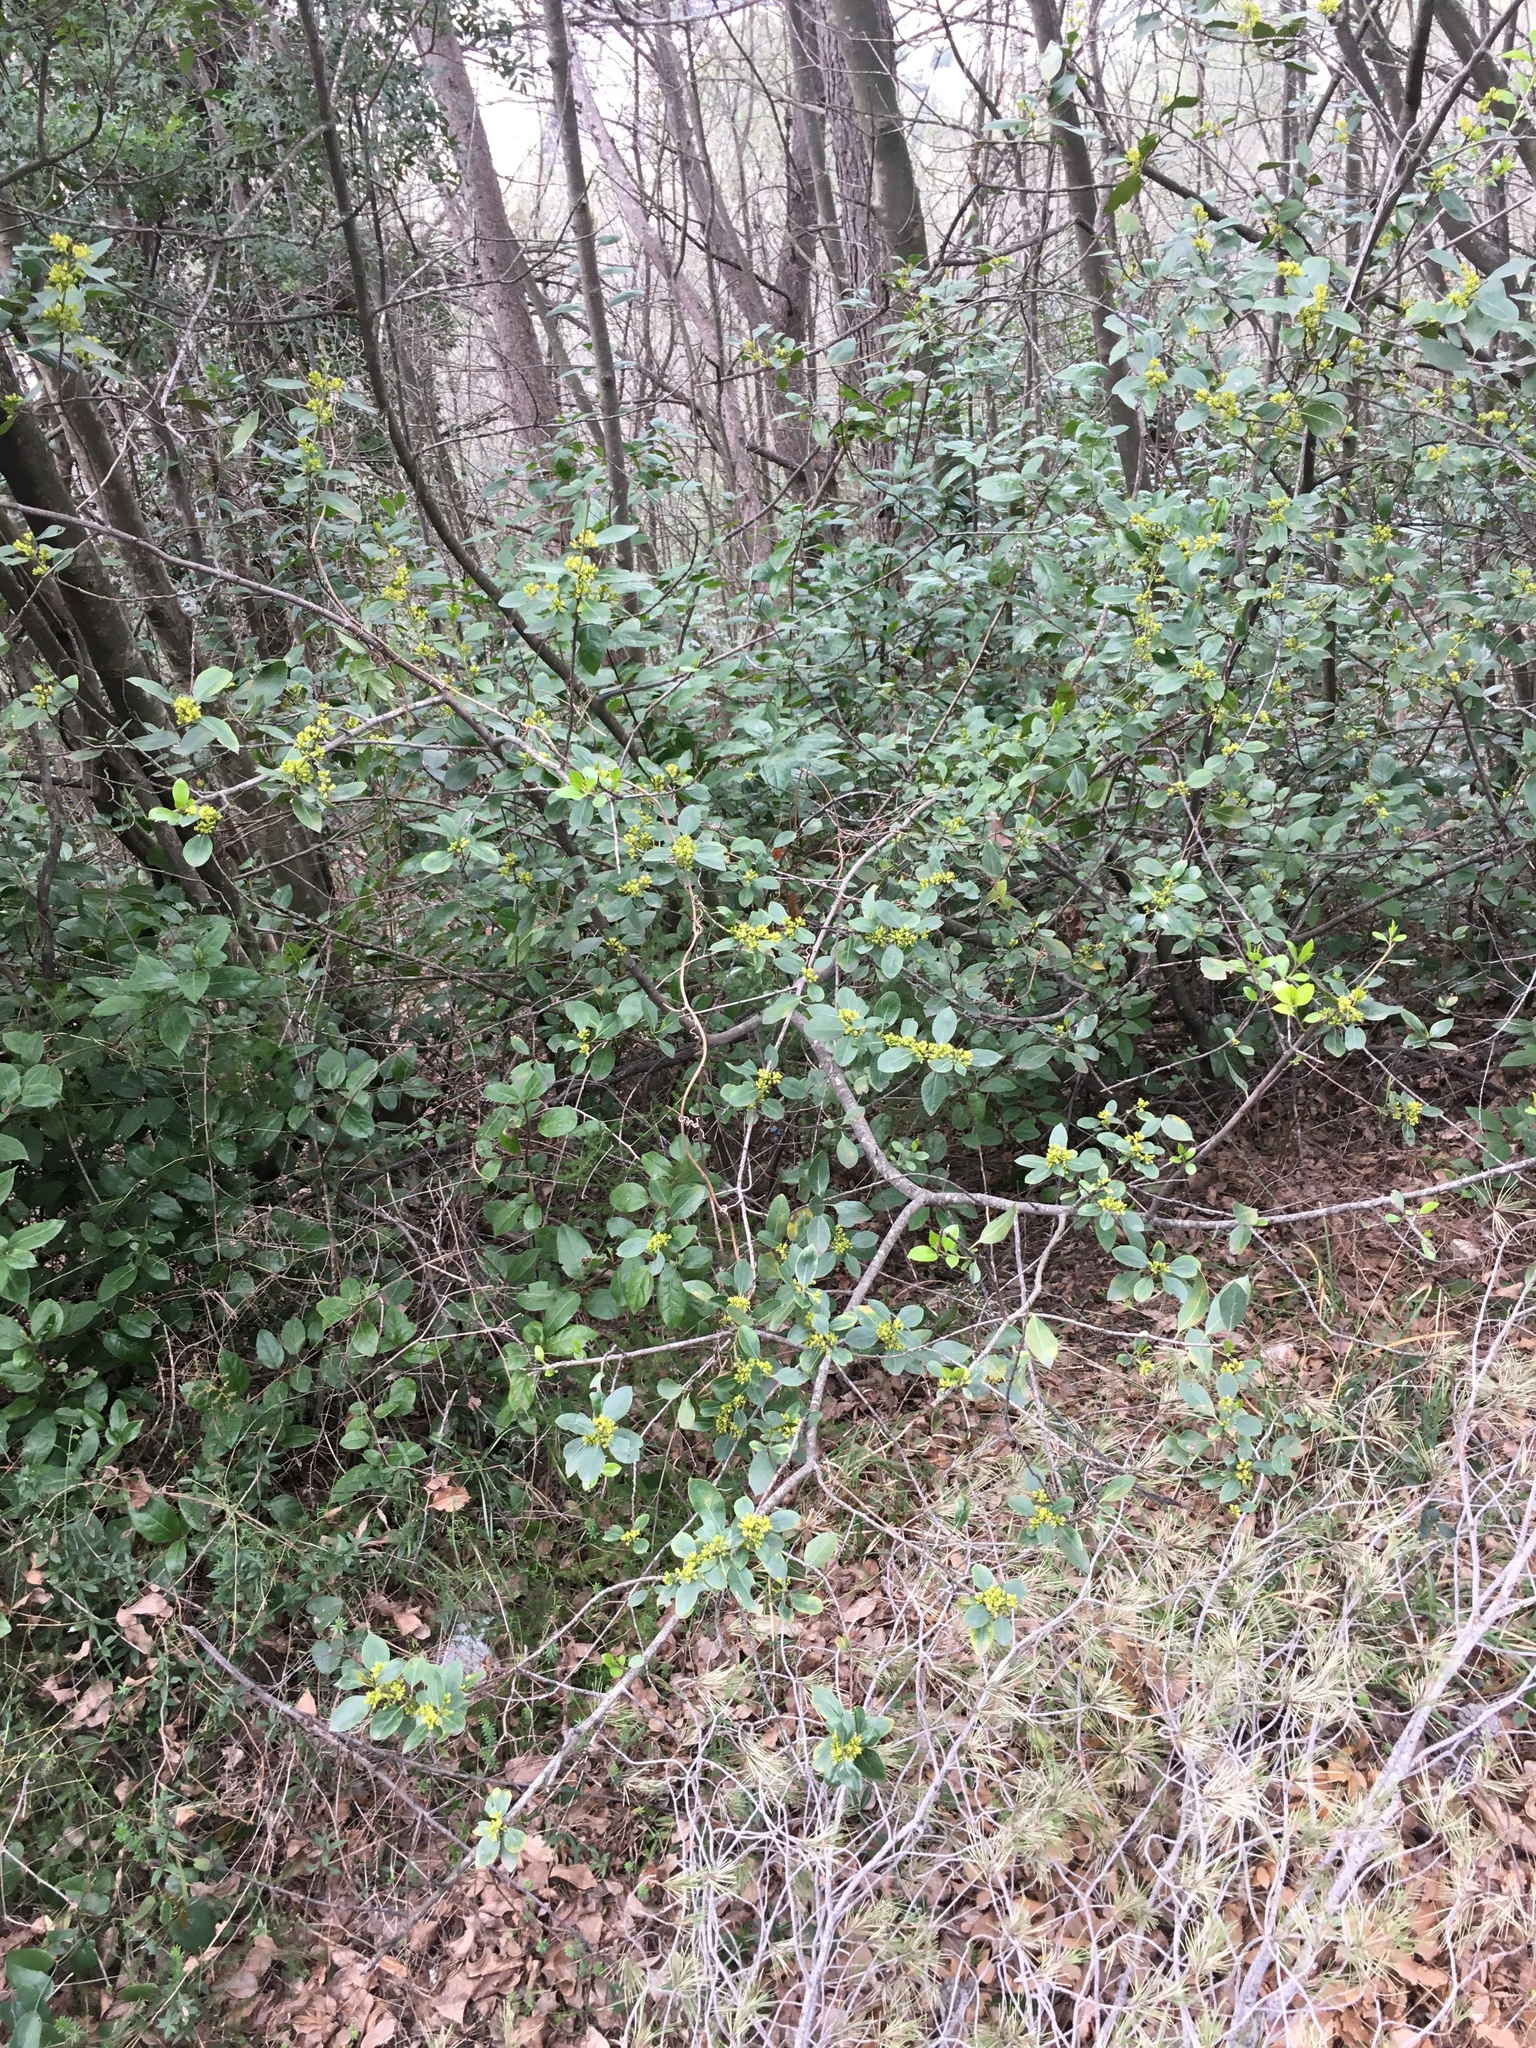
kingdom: Plantae
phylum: Tracheophyta
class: Magnoliopsida
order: Rosales
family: Rhamnaceae
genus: Rhamnus
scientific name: Rhamnus alaternus
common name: Mediterranean buckthorn
